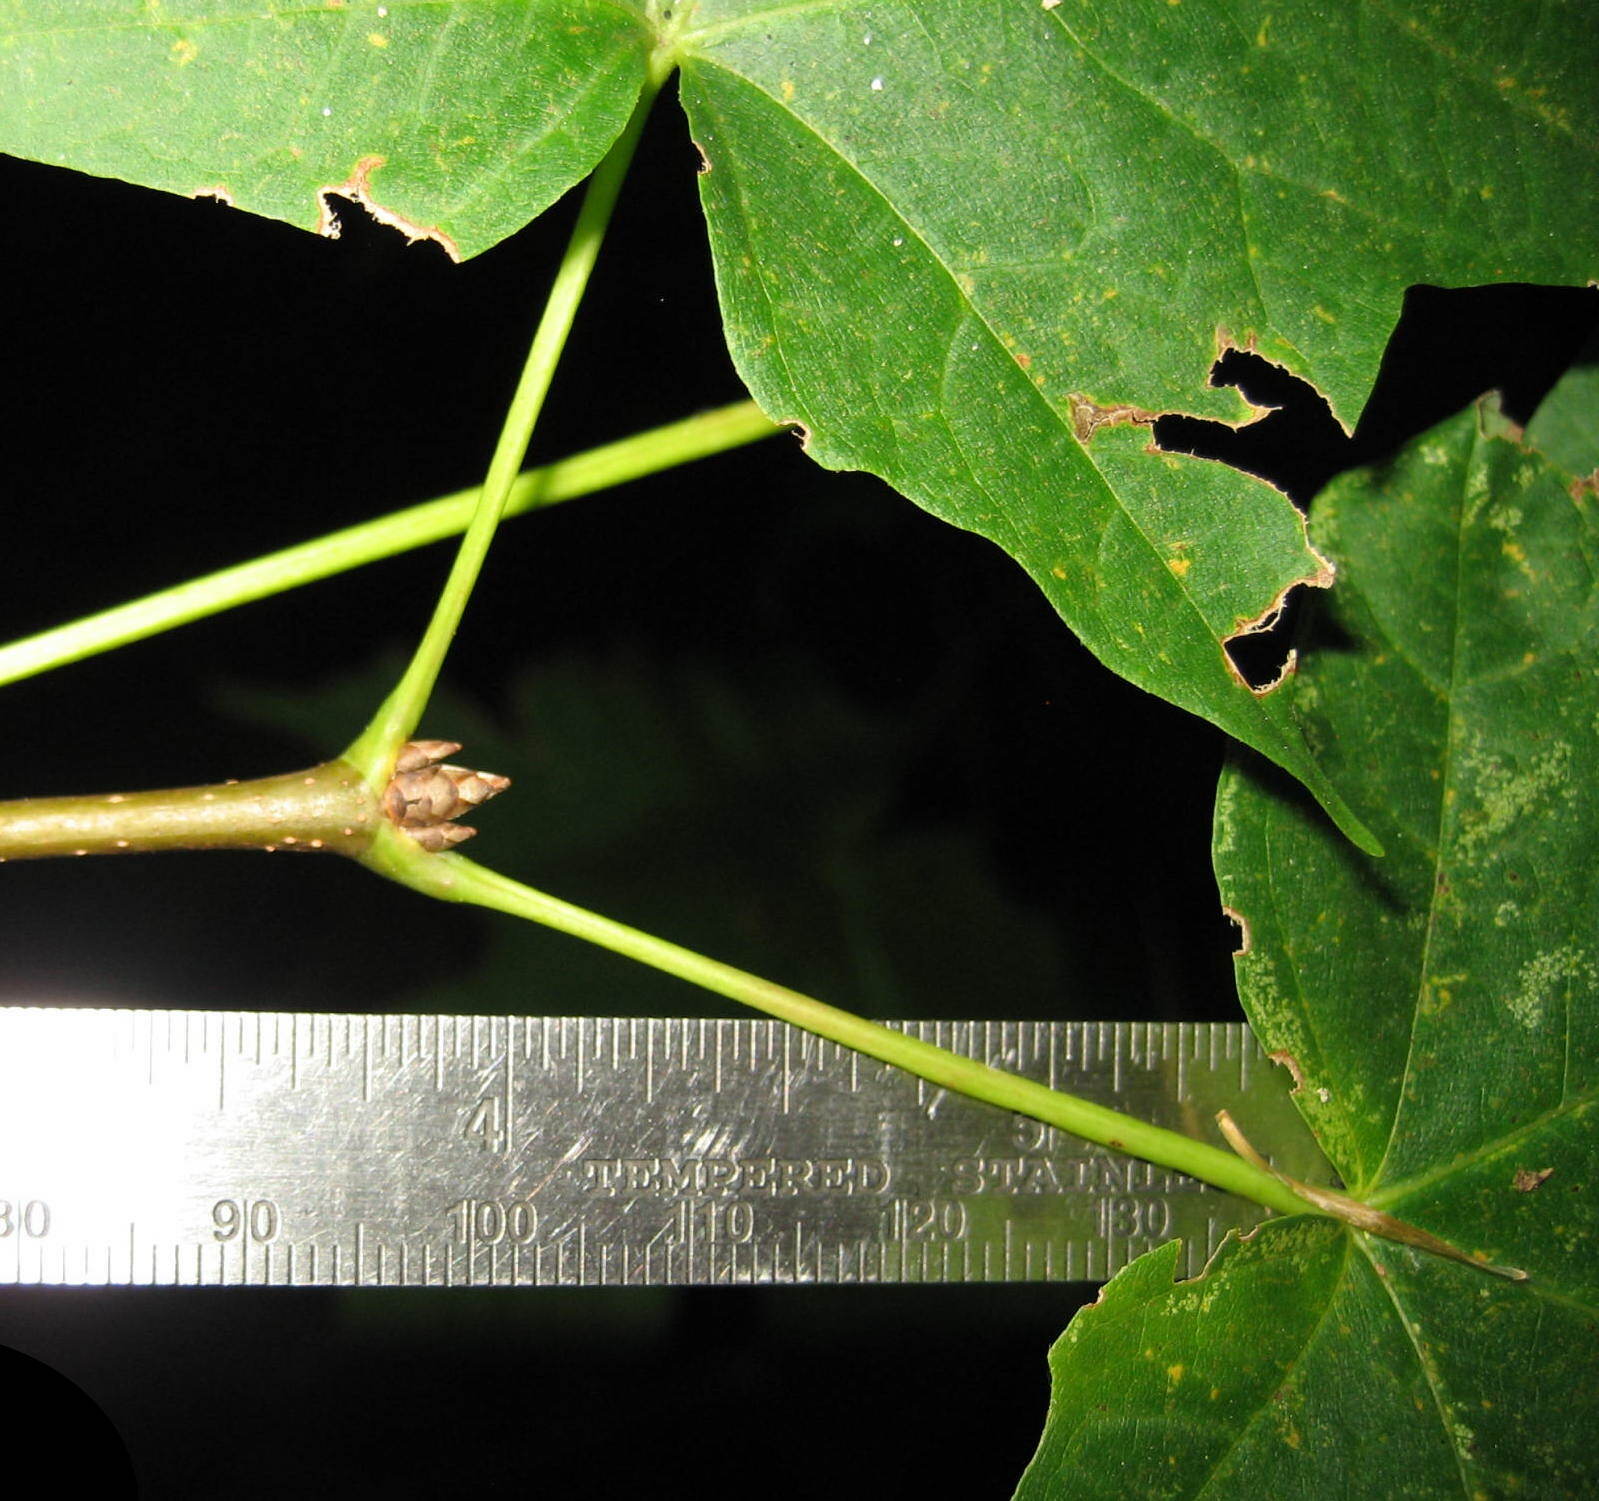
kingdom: Plantae
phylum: Tracheophyta
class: Magnoliopsida
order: Sapindales
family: Sapindaceae
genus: Acer
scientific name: Acer saccharum
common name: Sugar maple
